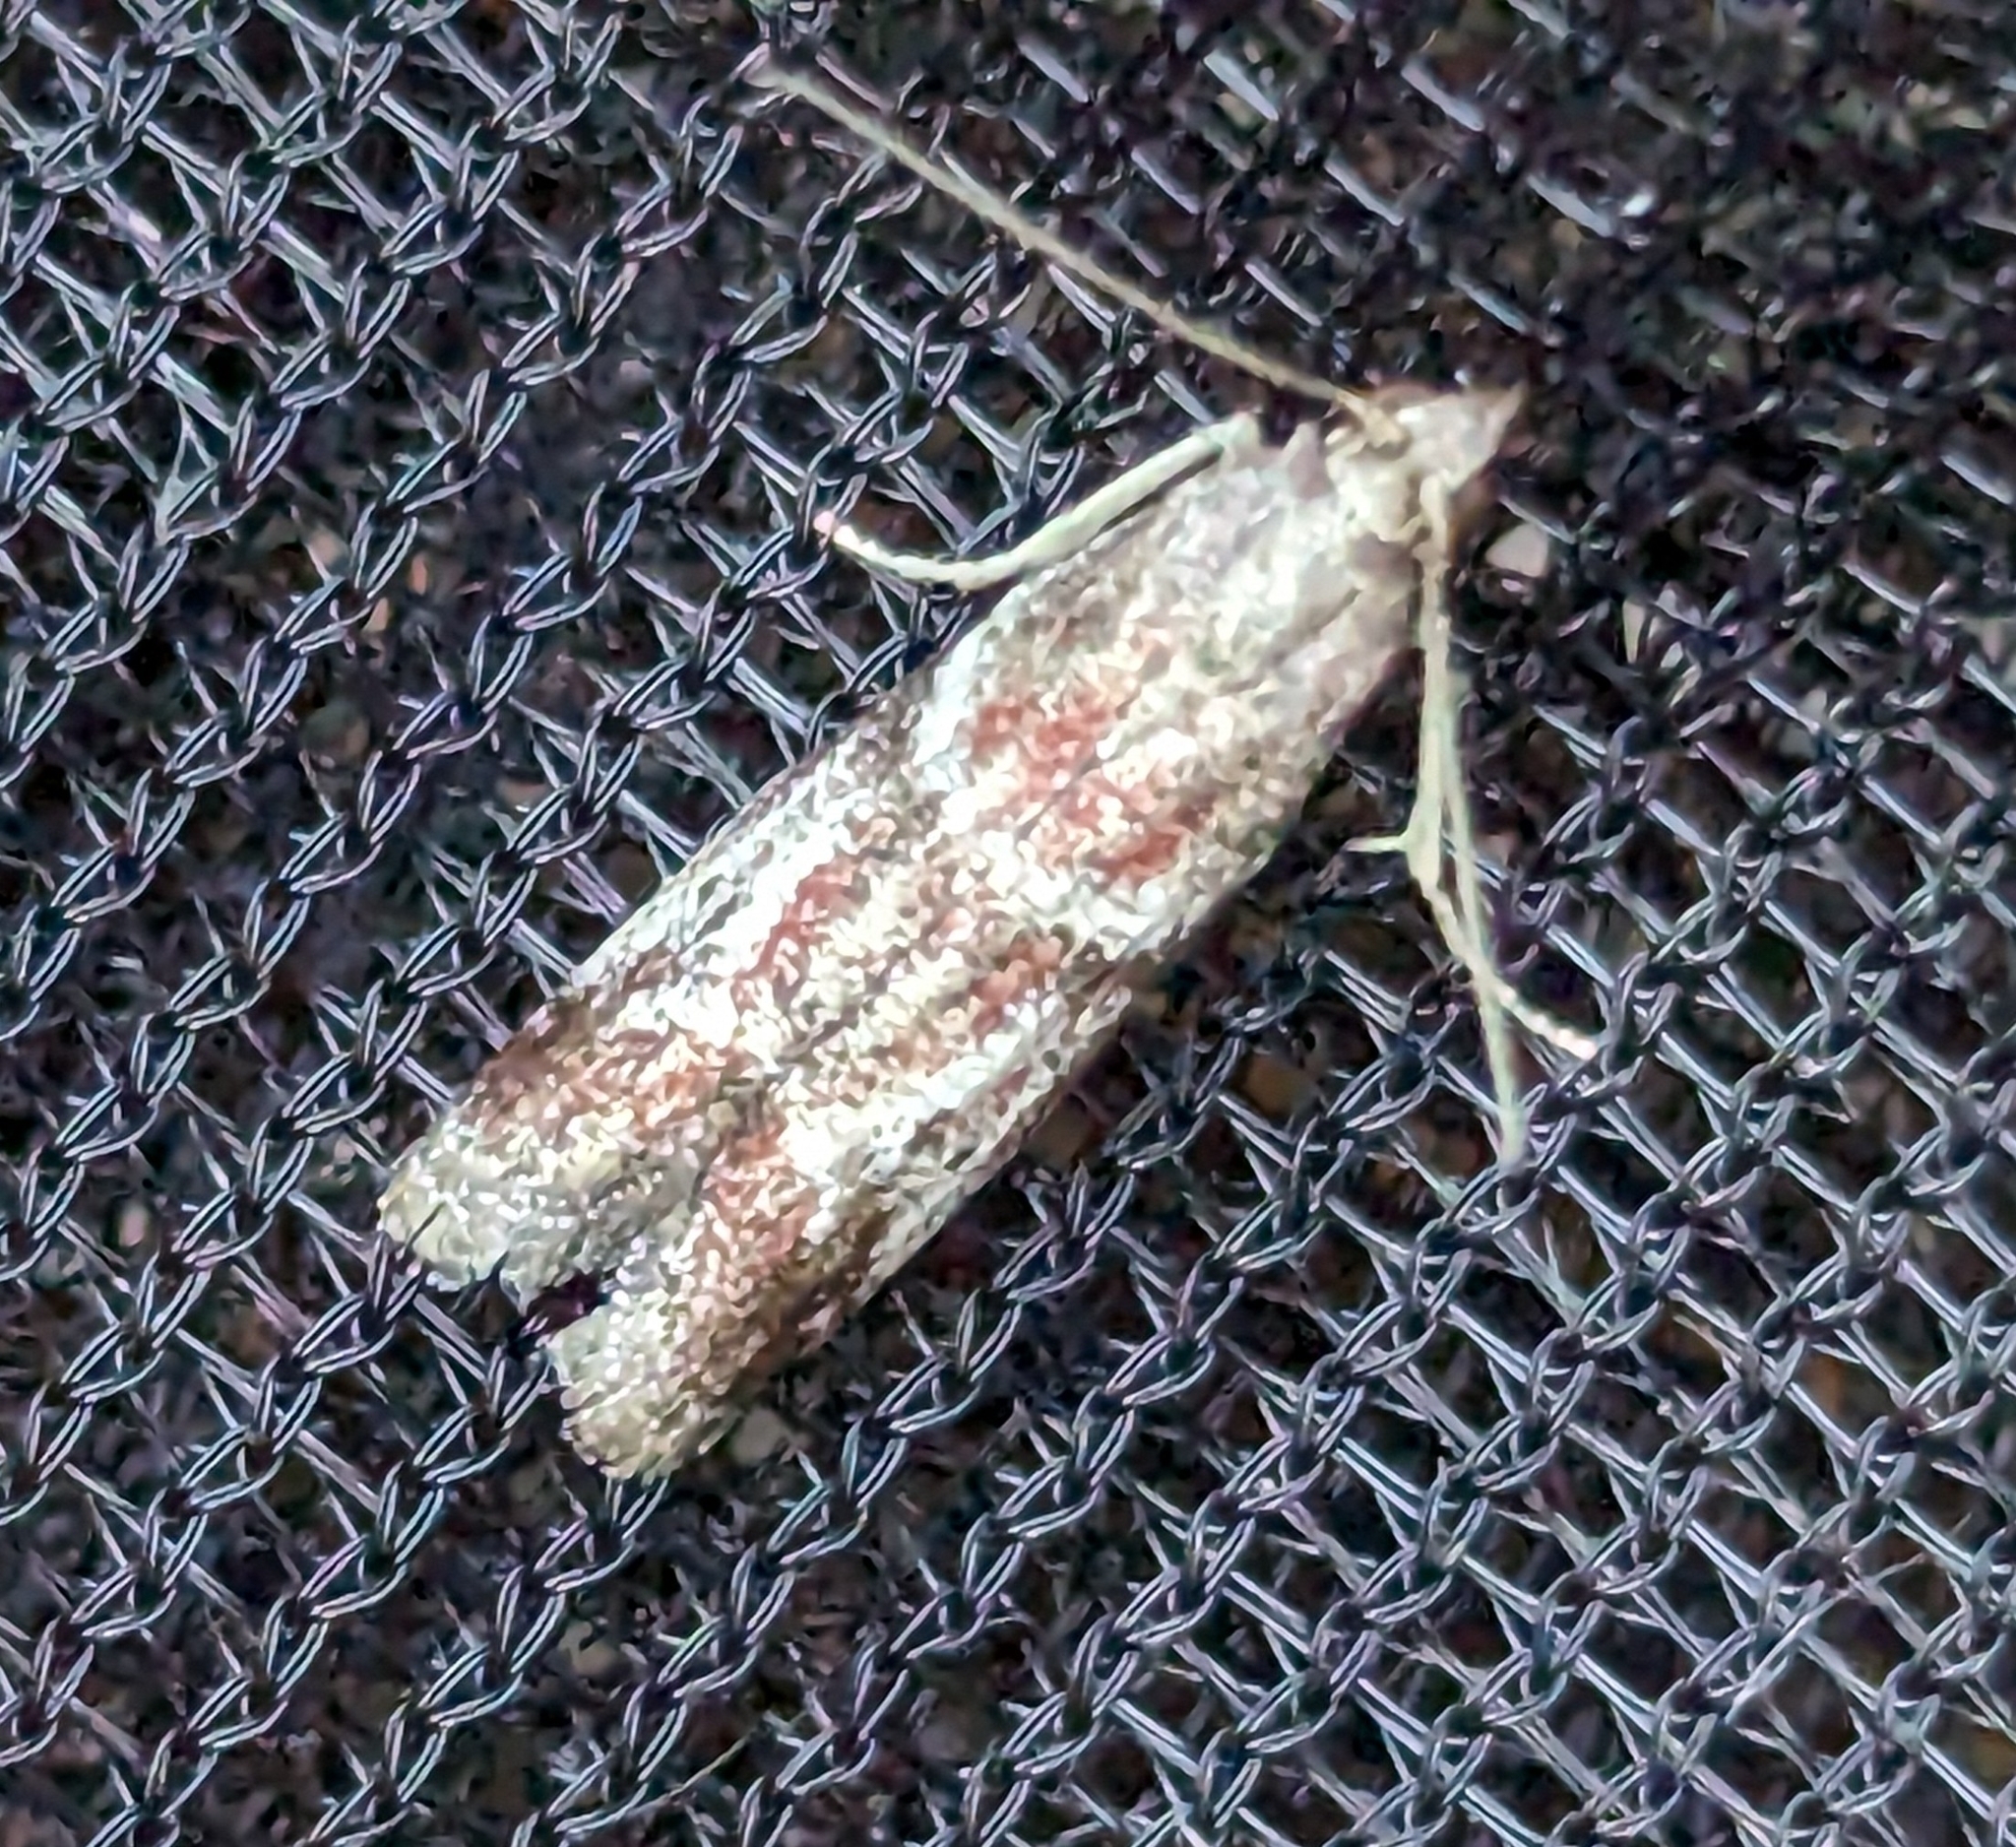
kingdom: Animalia
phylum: Arthropoda
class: Insecta
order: Lepidoptera
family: Pyralidae
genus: Ephestiodes
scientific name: Ephestiodes erythrella
